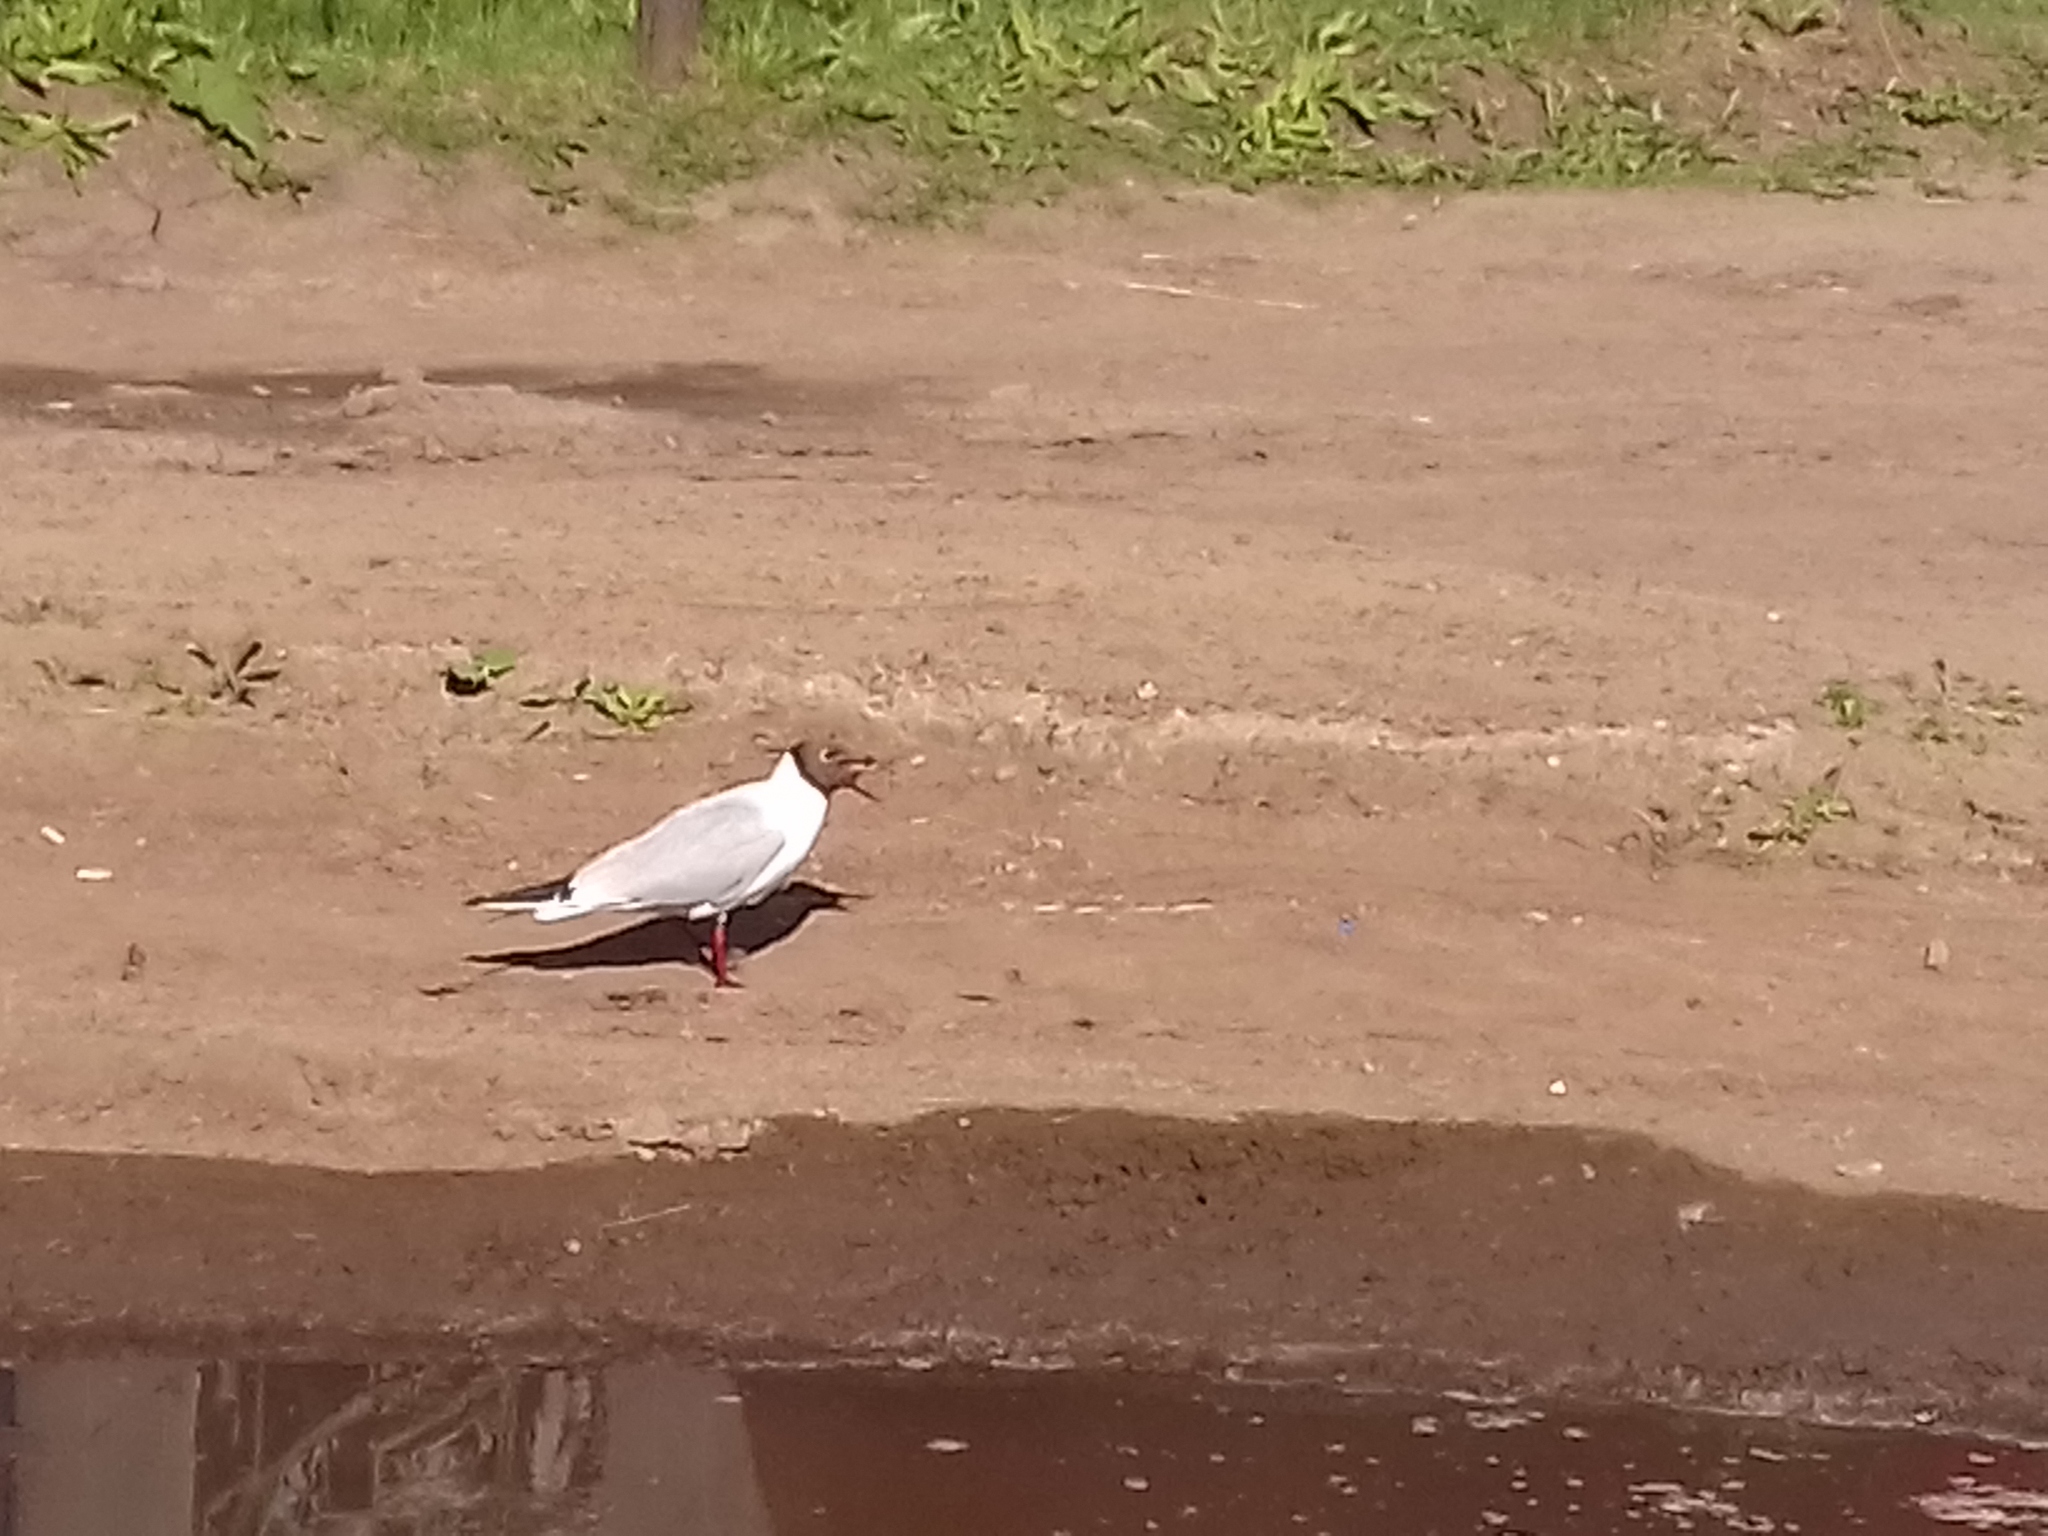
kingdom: Animalia
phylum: Chordata
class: Aves
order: Charadriiformes
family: Laridae
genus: Chroicocephalus
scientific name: Chroicocephalus ridibundus
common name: Black-headed gull
